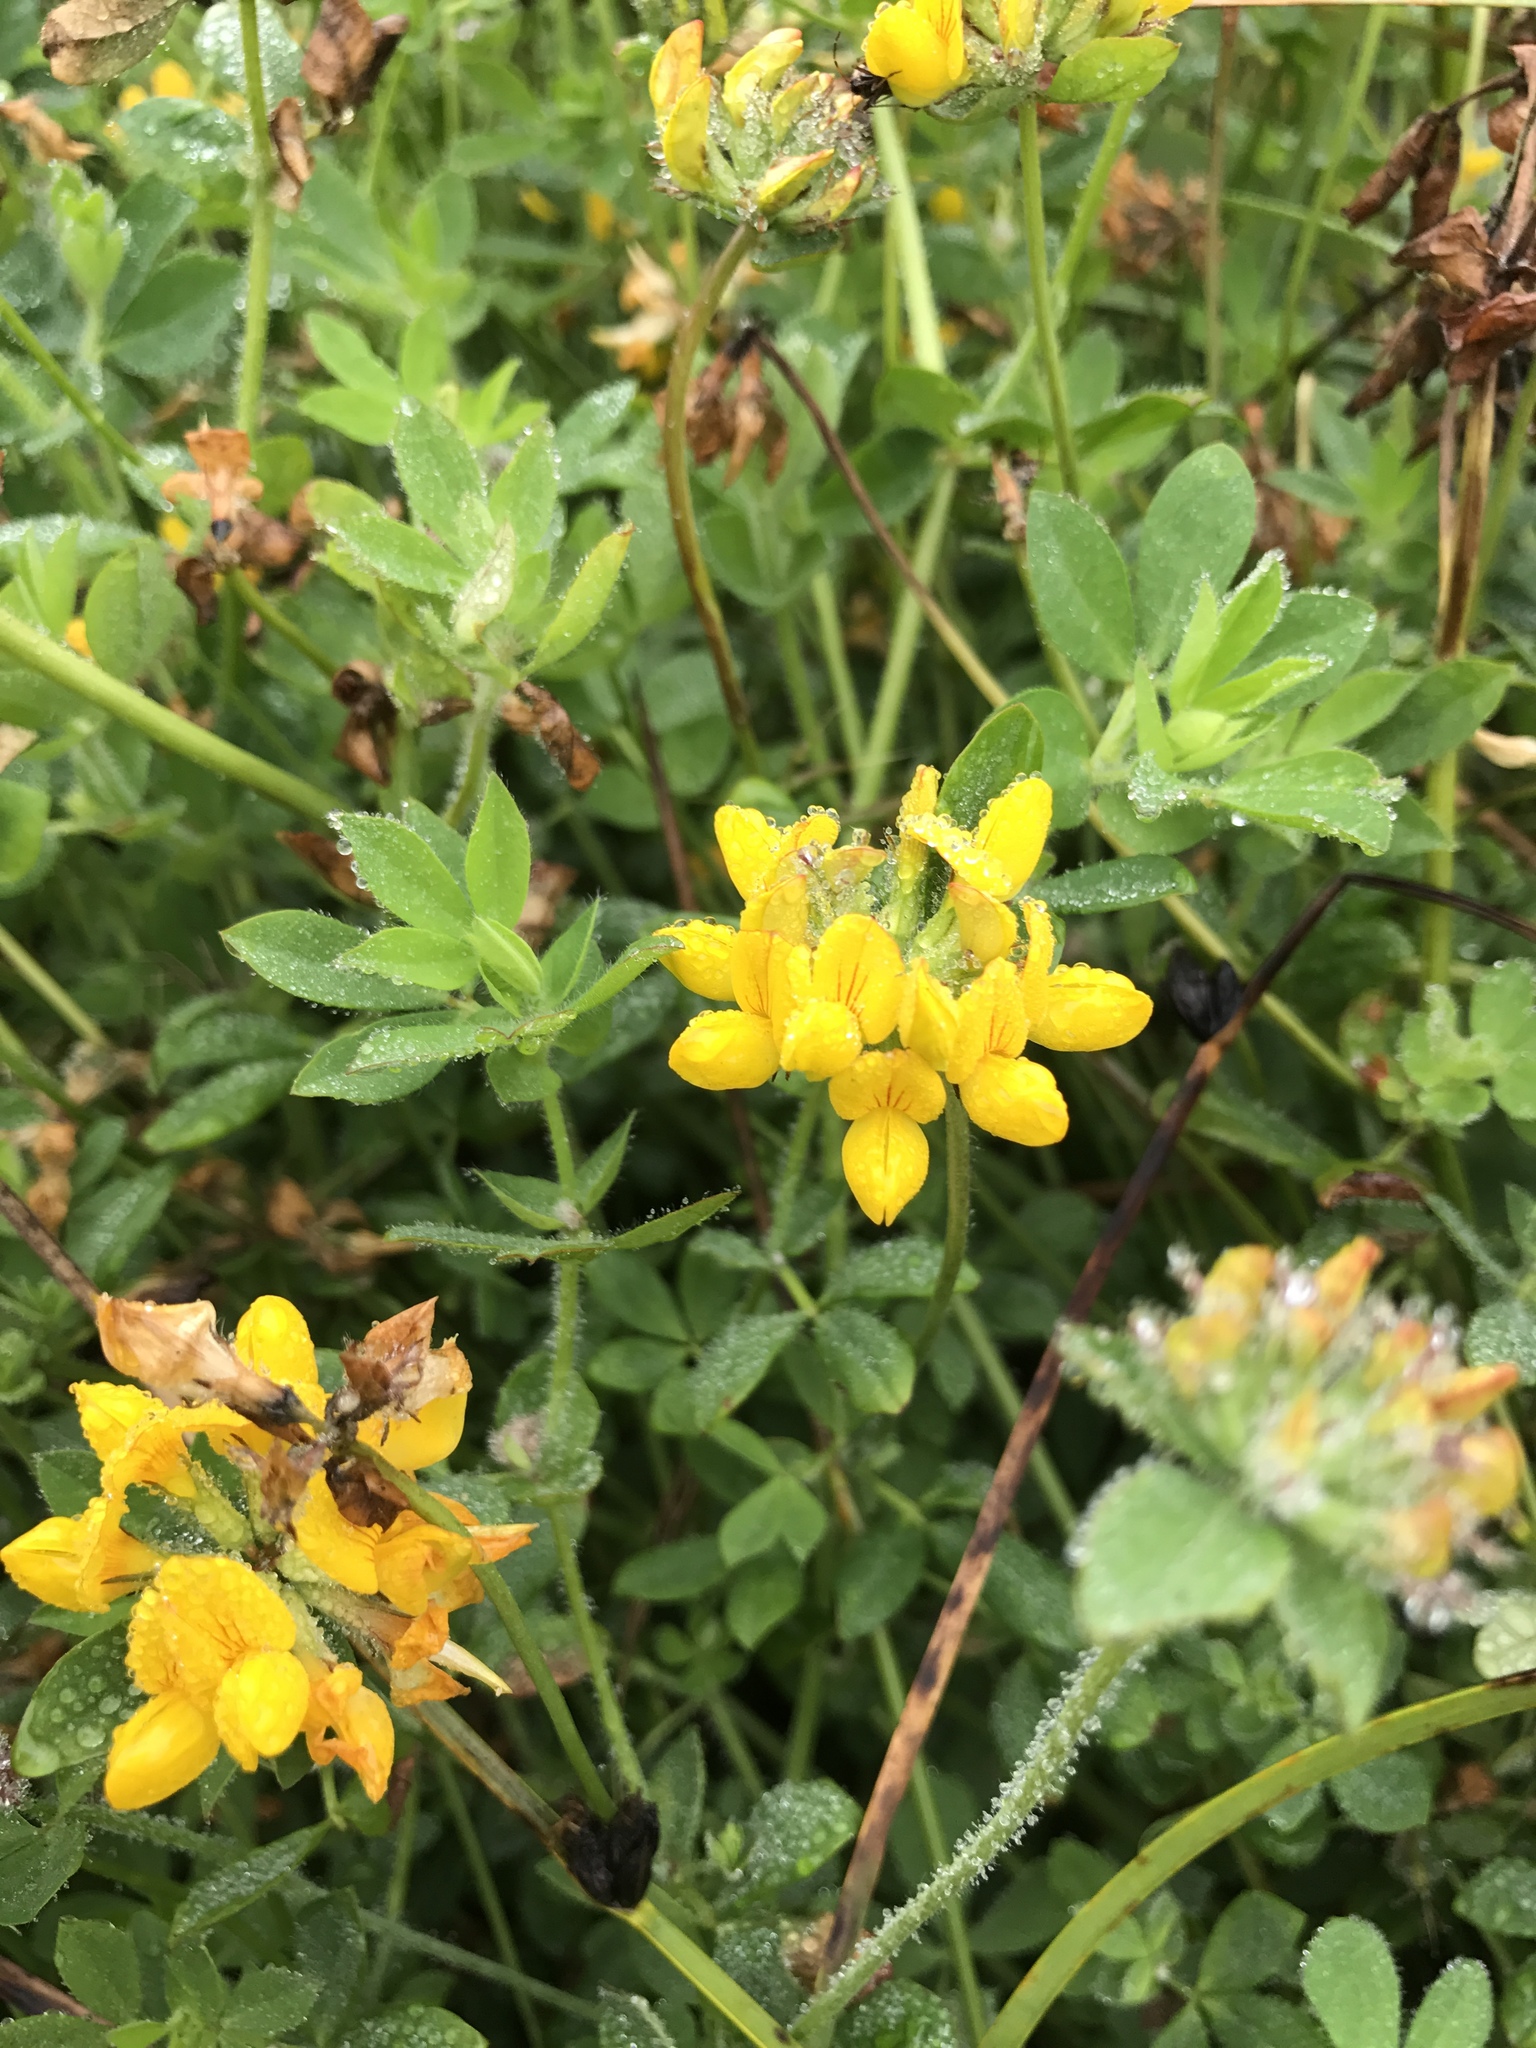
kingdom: Plantae
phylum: Tracheophyta
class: Magnoliopsida
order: Fabales
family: Fabaceae
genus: Lotus
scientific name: Lotus pedunculatus
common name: Greater birdsfoot-trefoil
